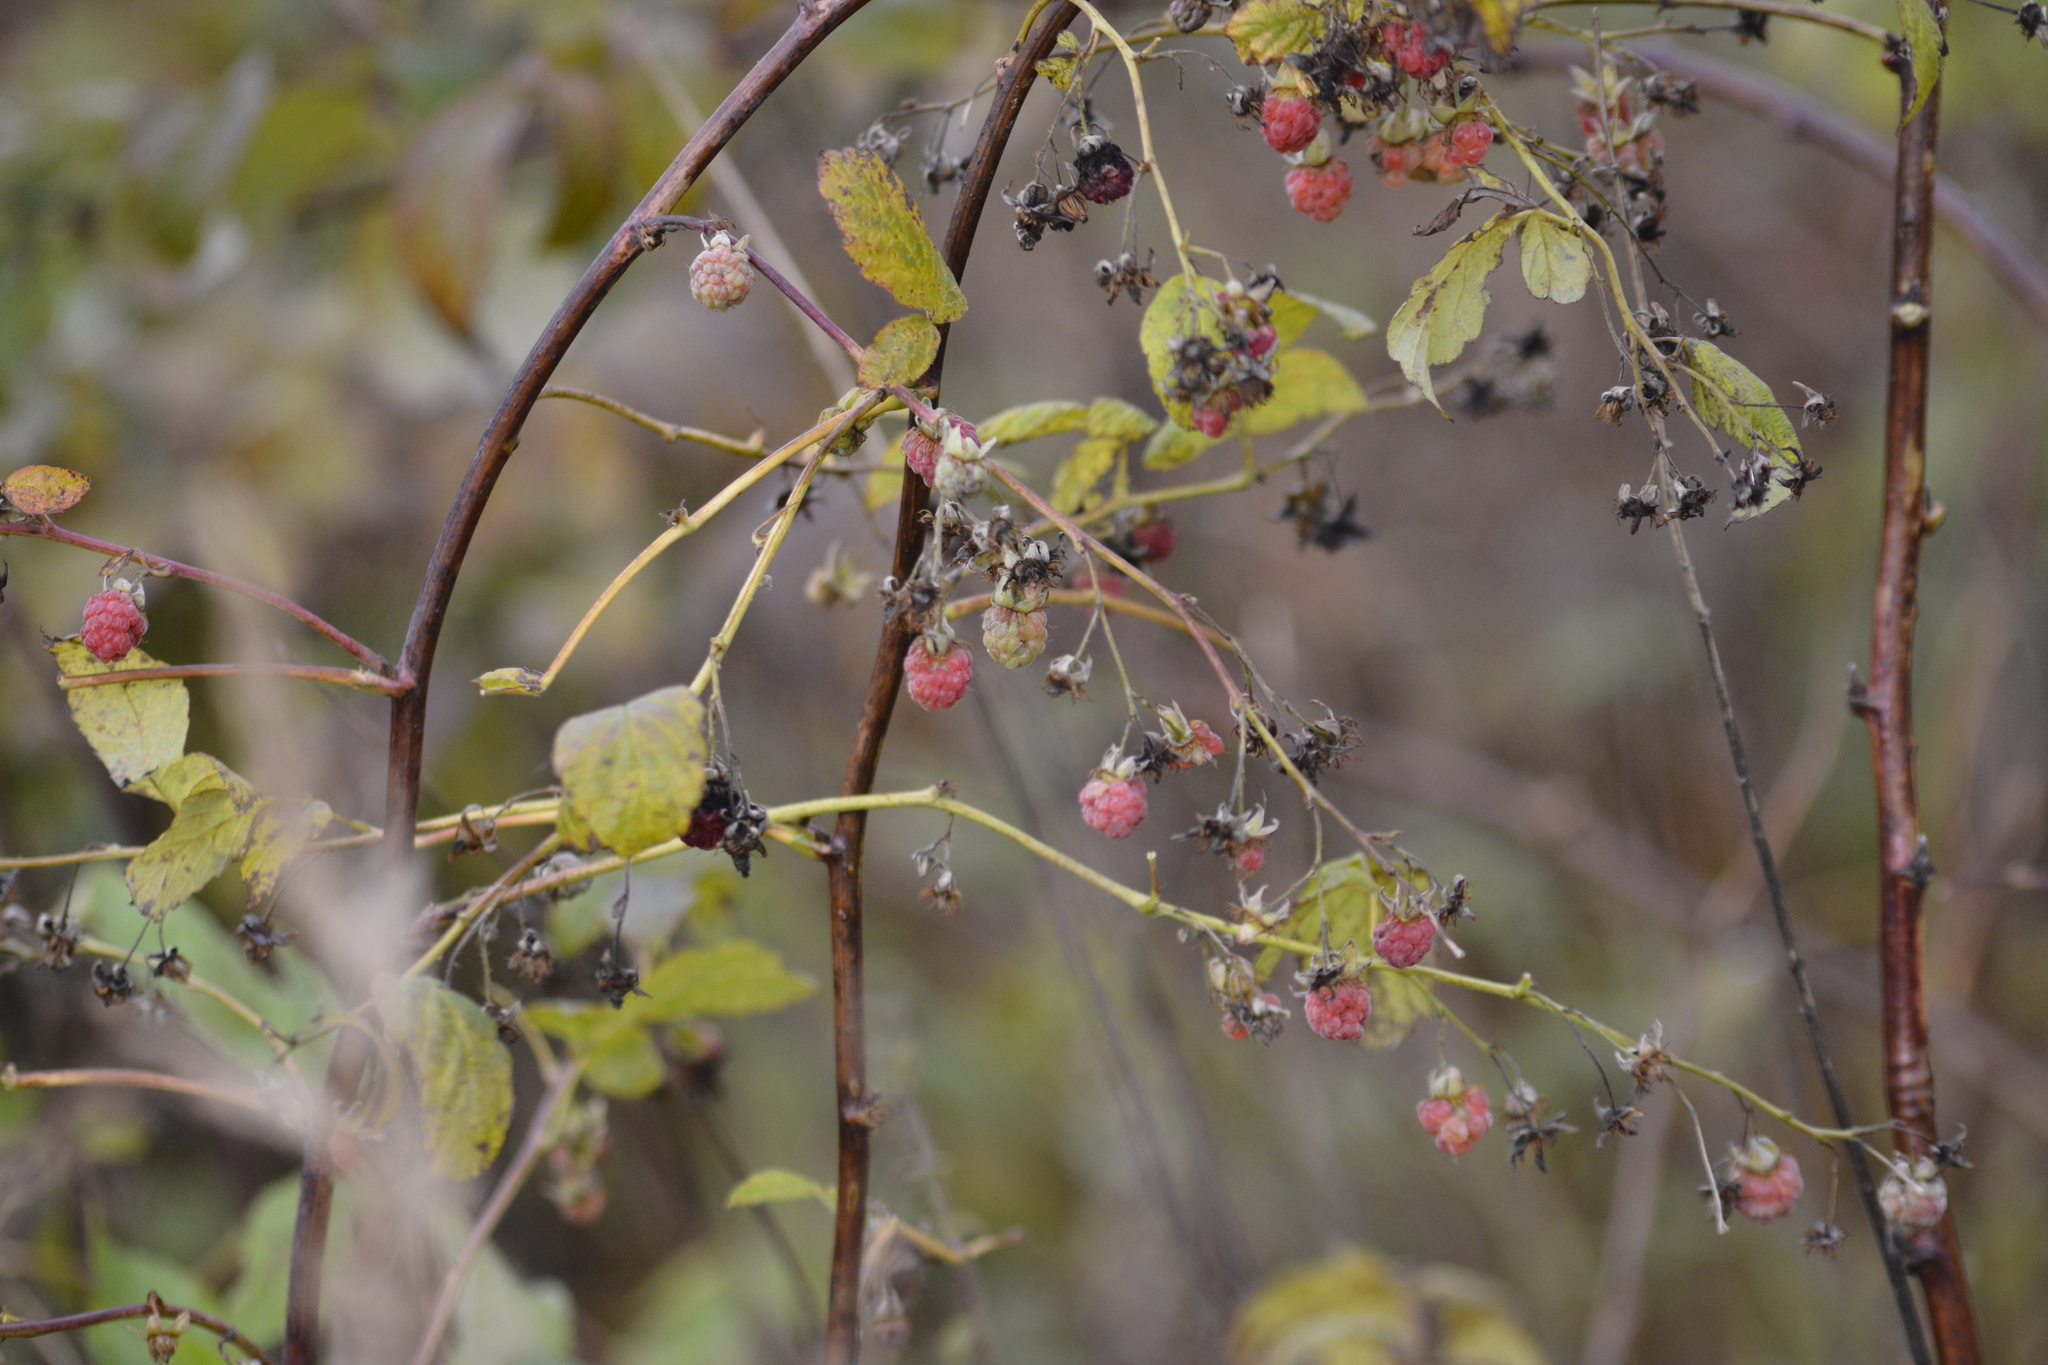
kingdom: Plantae
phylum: Tracheophyta
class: Magnoliopsida
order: Rosales
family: Rosaceae
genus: Rubus
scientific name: Rubus idaeus
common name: Raspberry
